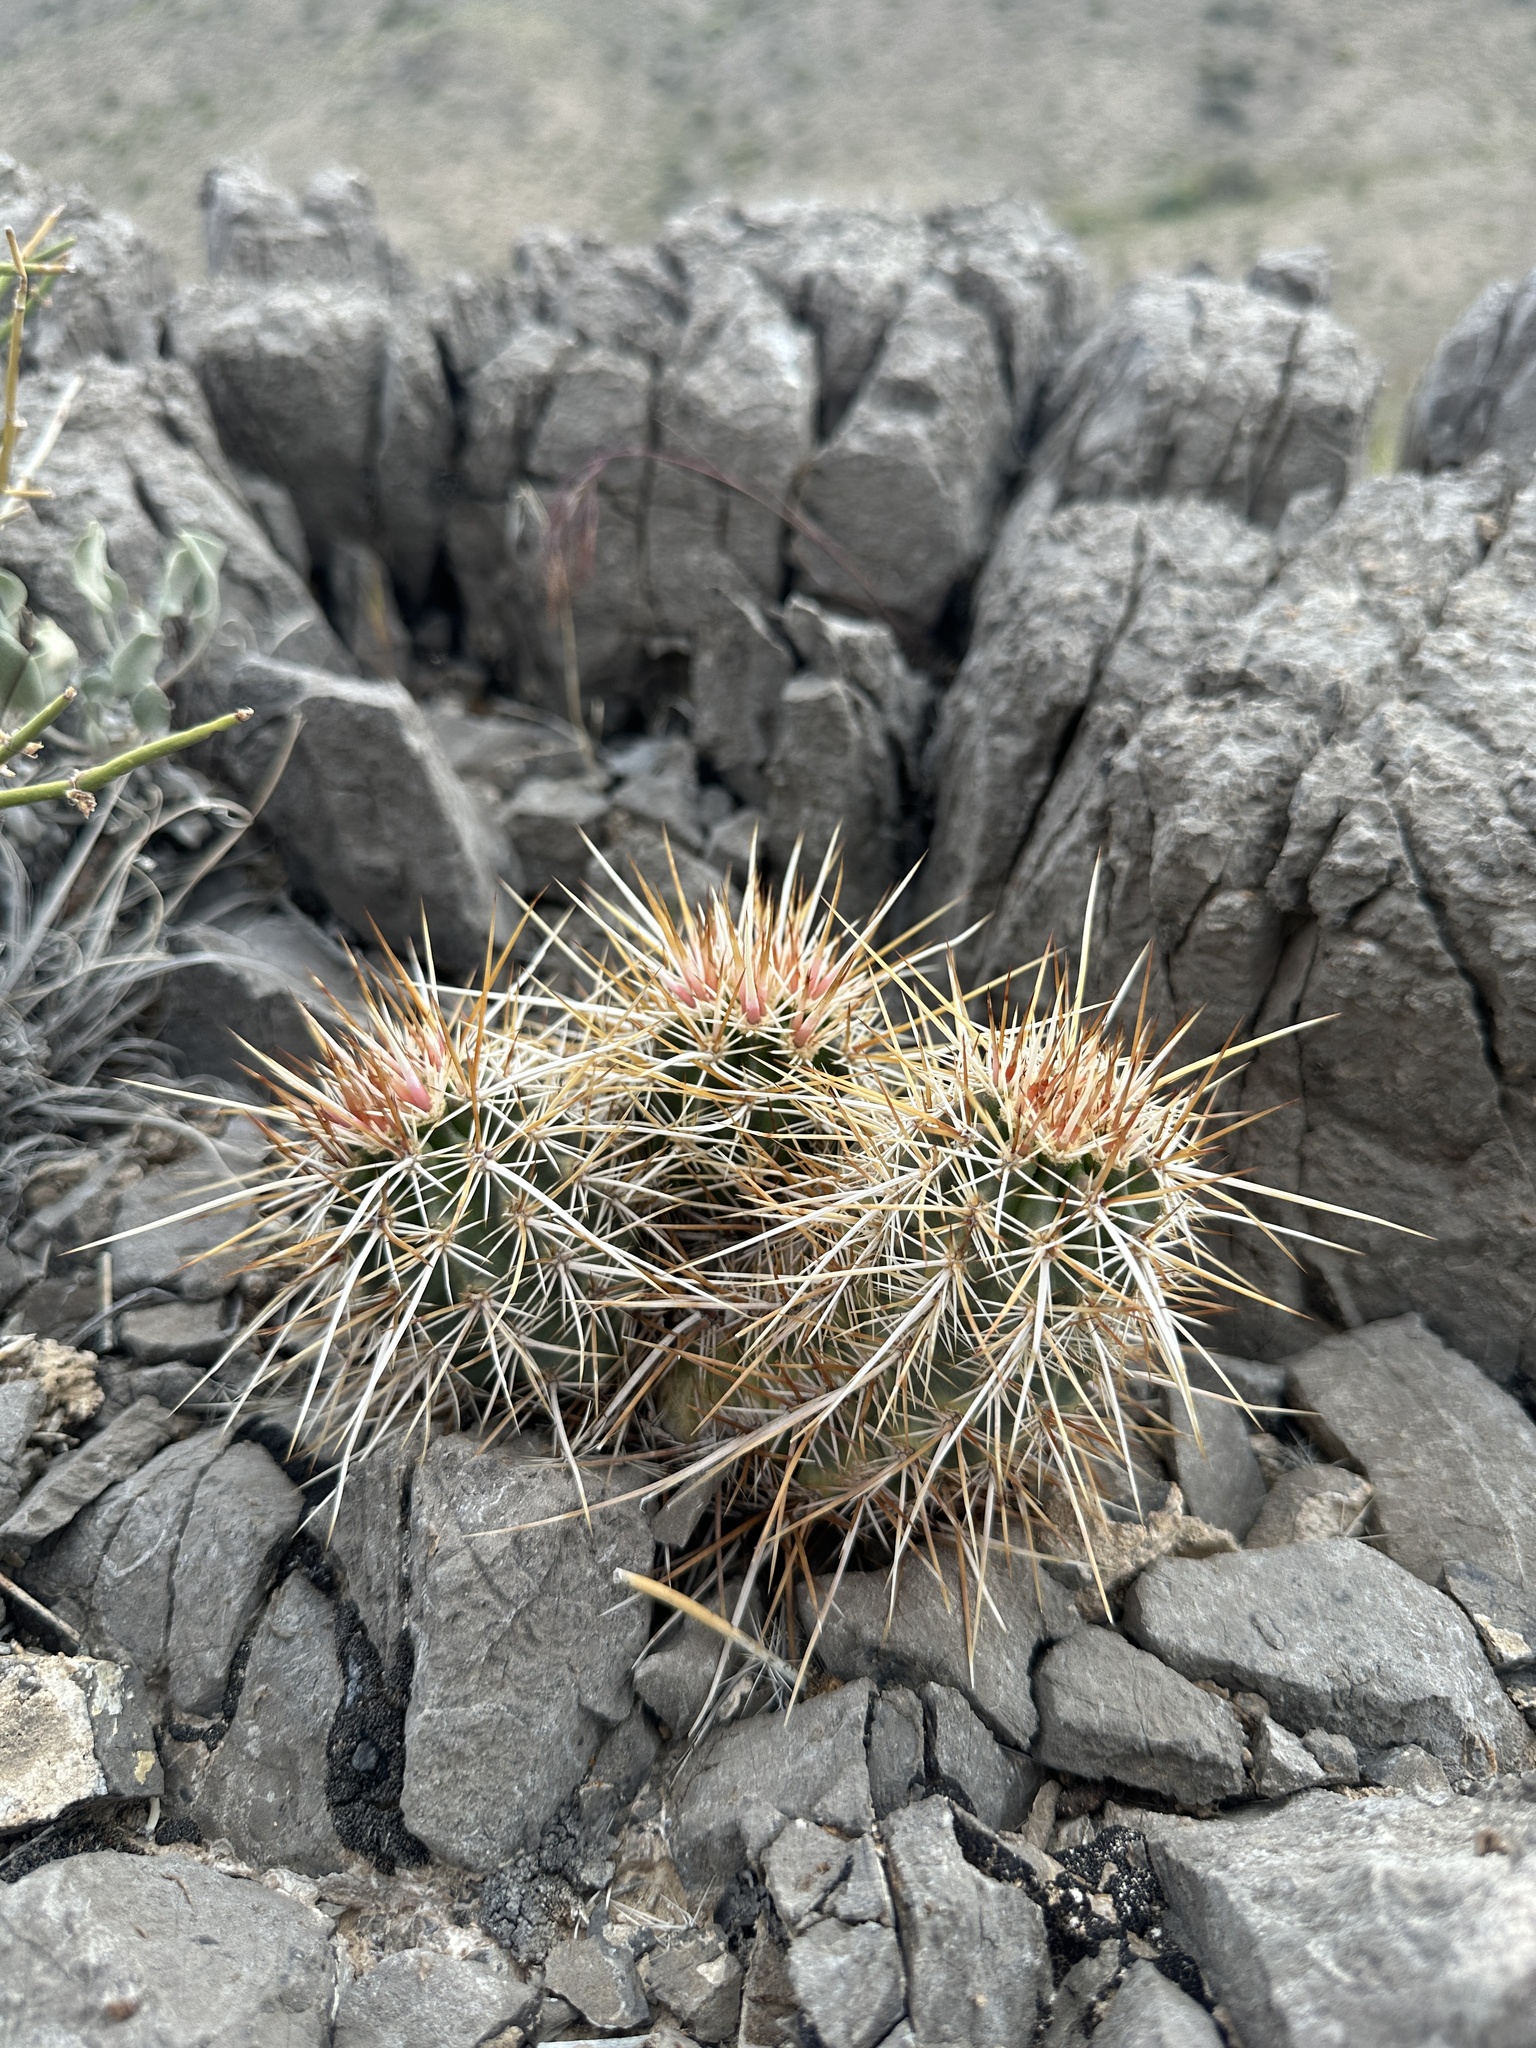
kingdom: Plantae
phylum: Tracheophyta
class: Magnoliopsida
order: Caryophyllales
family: Cactaceae
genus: Echinocereus
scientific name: Echinocereus engelmannii
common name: Engelmann's hedgehog cactus
